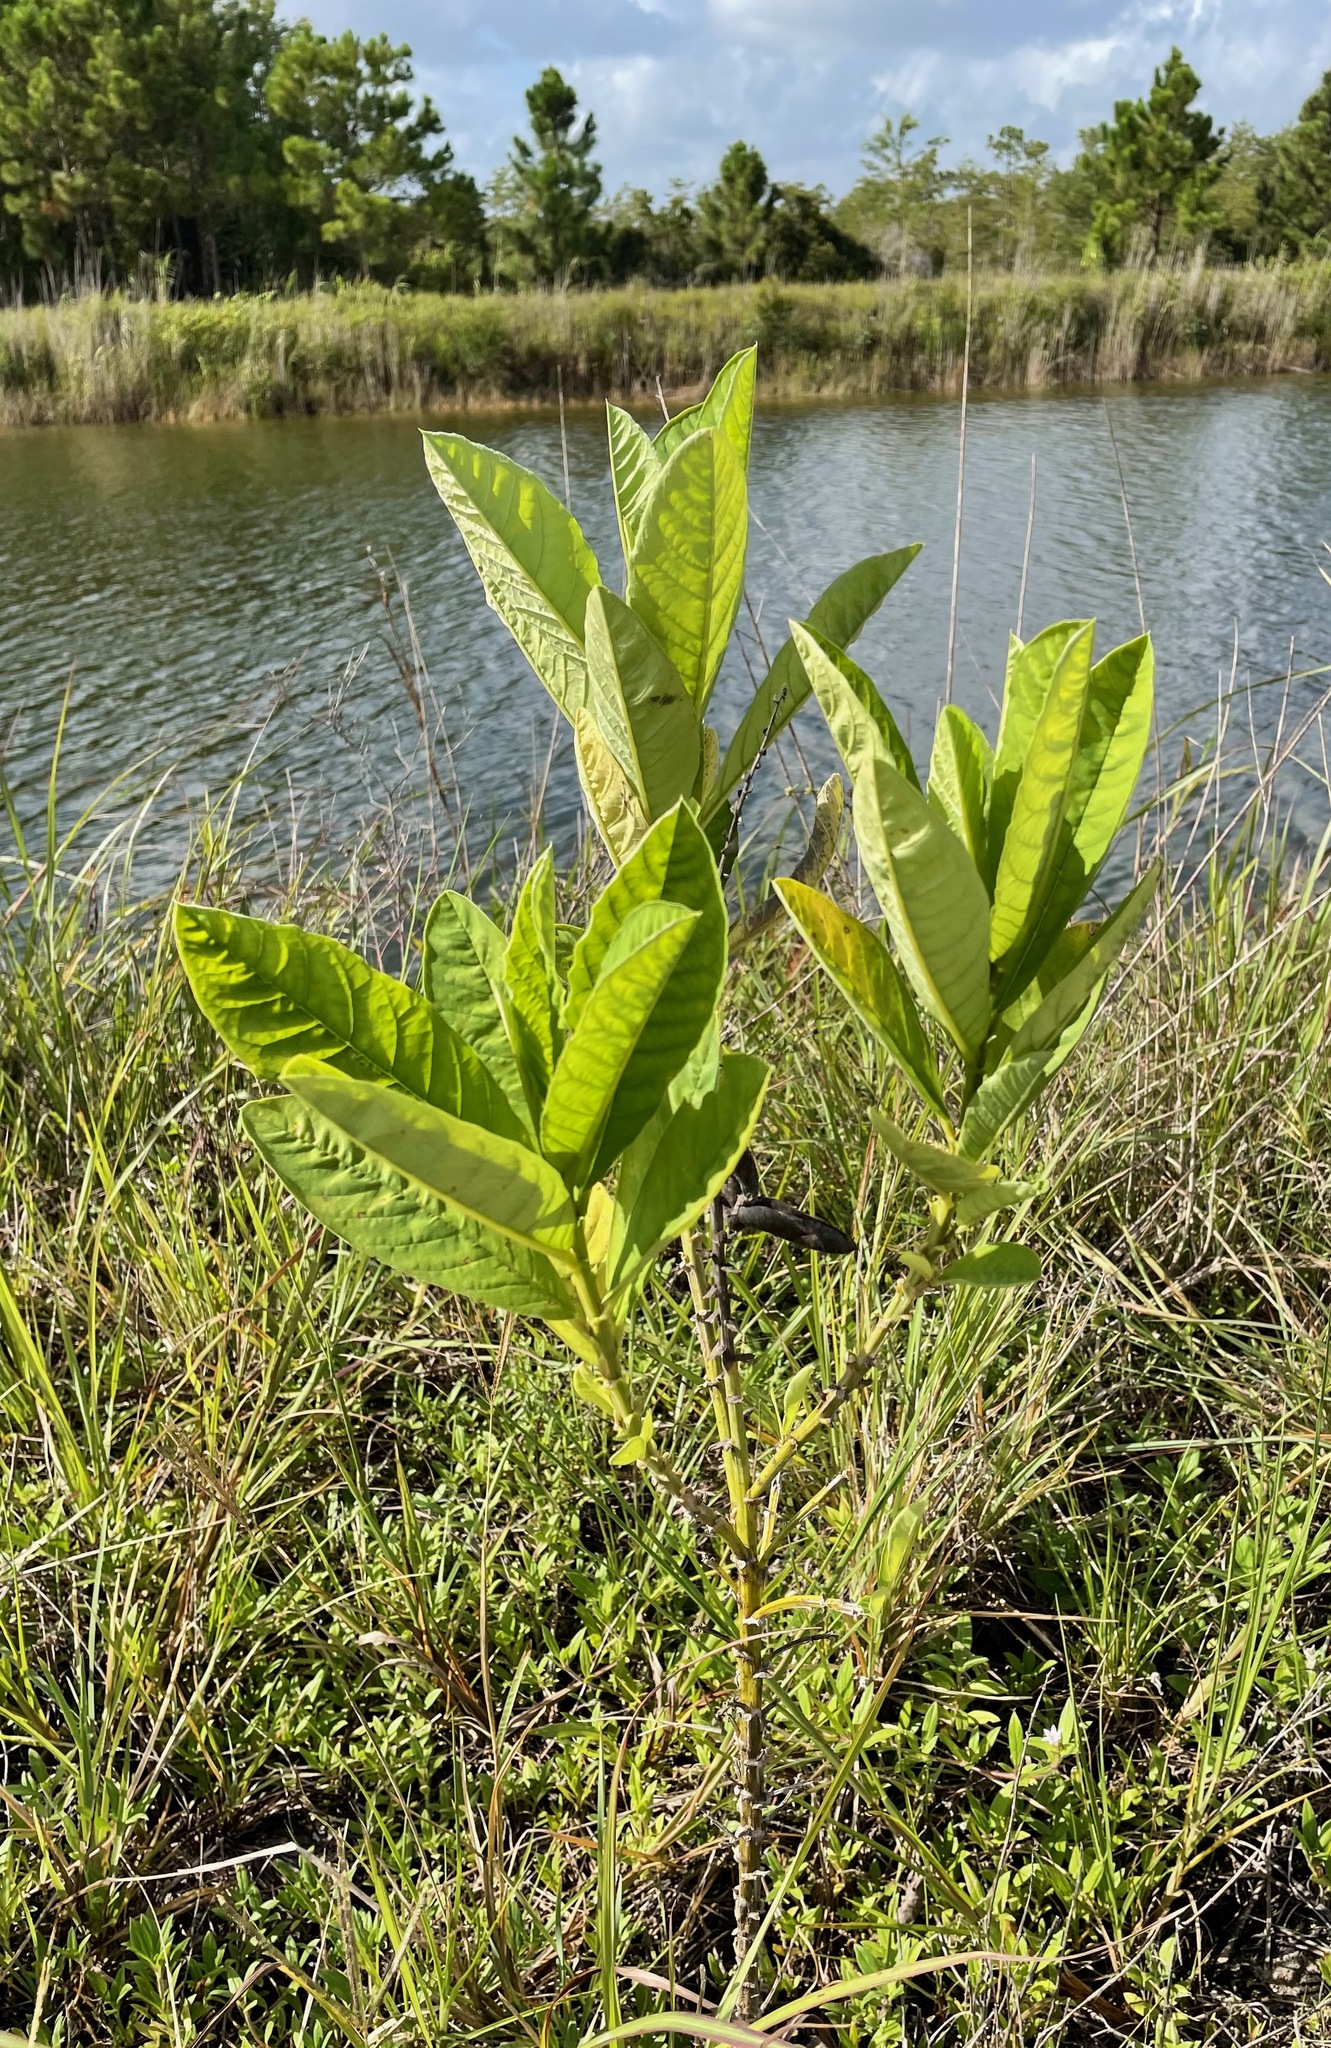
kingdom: Plantae
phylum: Tracheophyta
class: Magnoliopsida
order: Fabales
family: Fabaceae
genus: Crotalaria
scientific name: Crotalaria spectabilis
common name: Showy rattlebox
